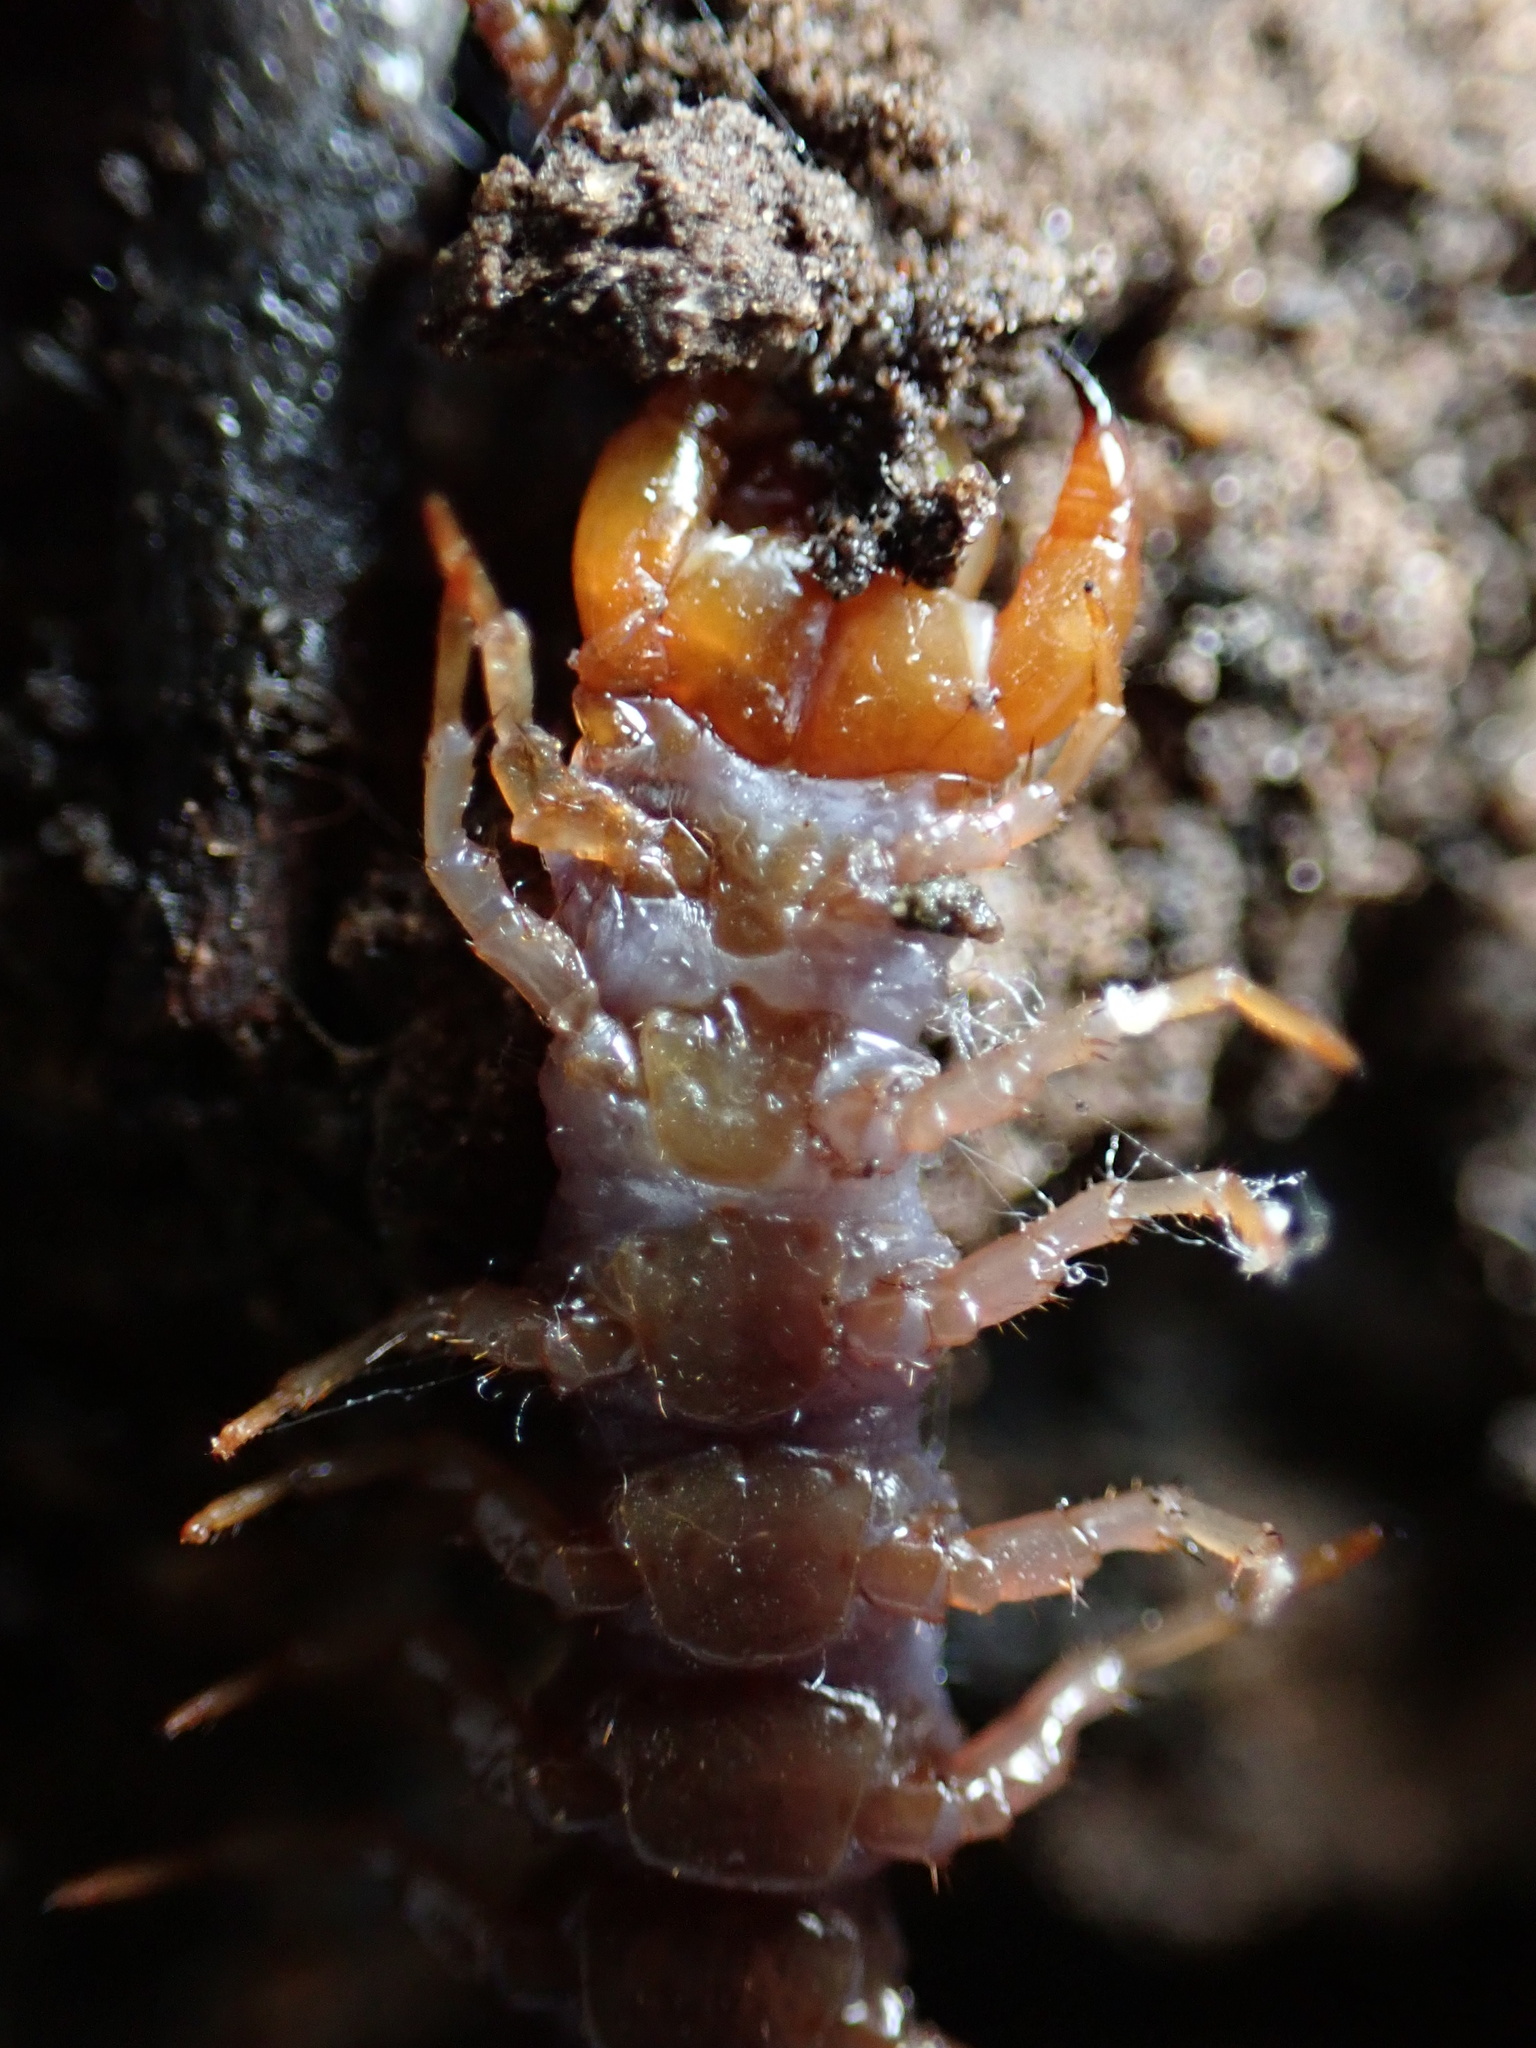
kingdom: Animalia
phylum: Arthropoda
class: Chilopoda
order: Lithobiomorpha
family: Lithobiidae
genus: Lithobius
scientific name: Lithobius forficatus
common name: Centipede
